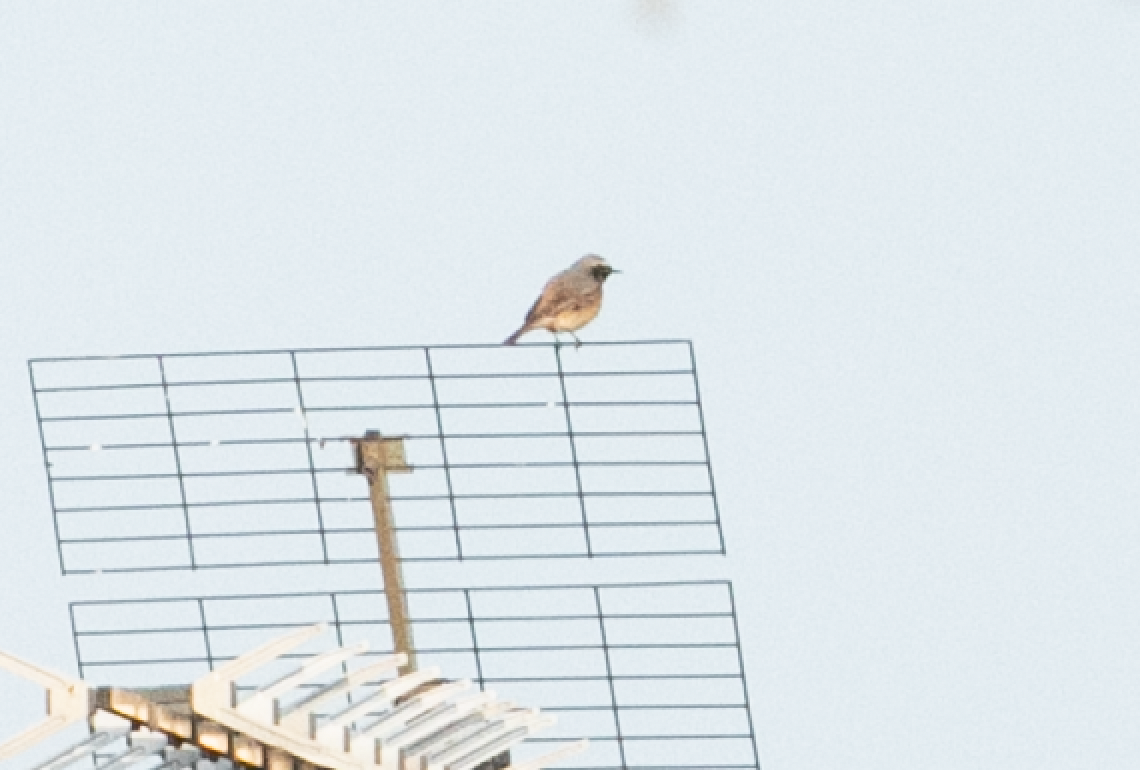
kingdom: Animalia
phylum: Chordata
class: Aves
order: Passeriformes
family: Muscicapidae
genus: Phoenicurus
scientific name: Phoenicurus phoenicurus
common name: Common redstart
